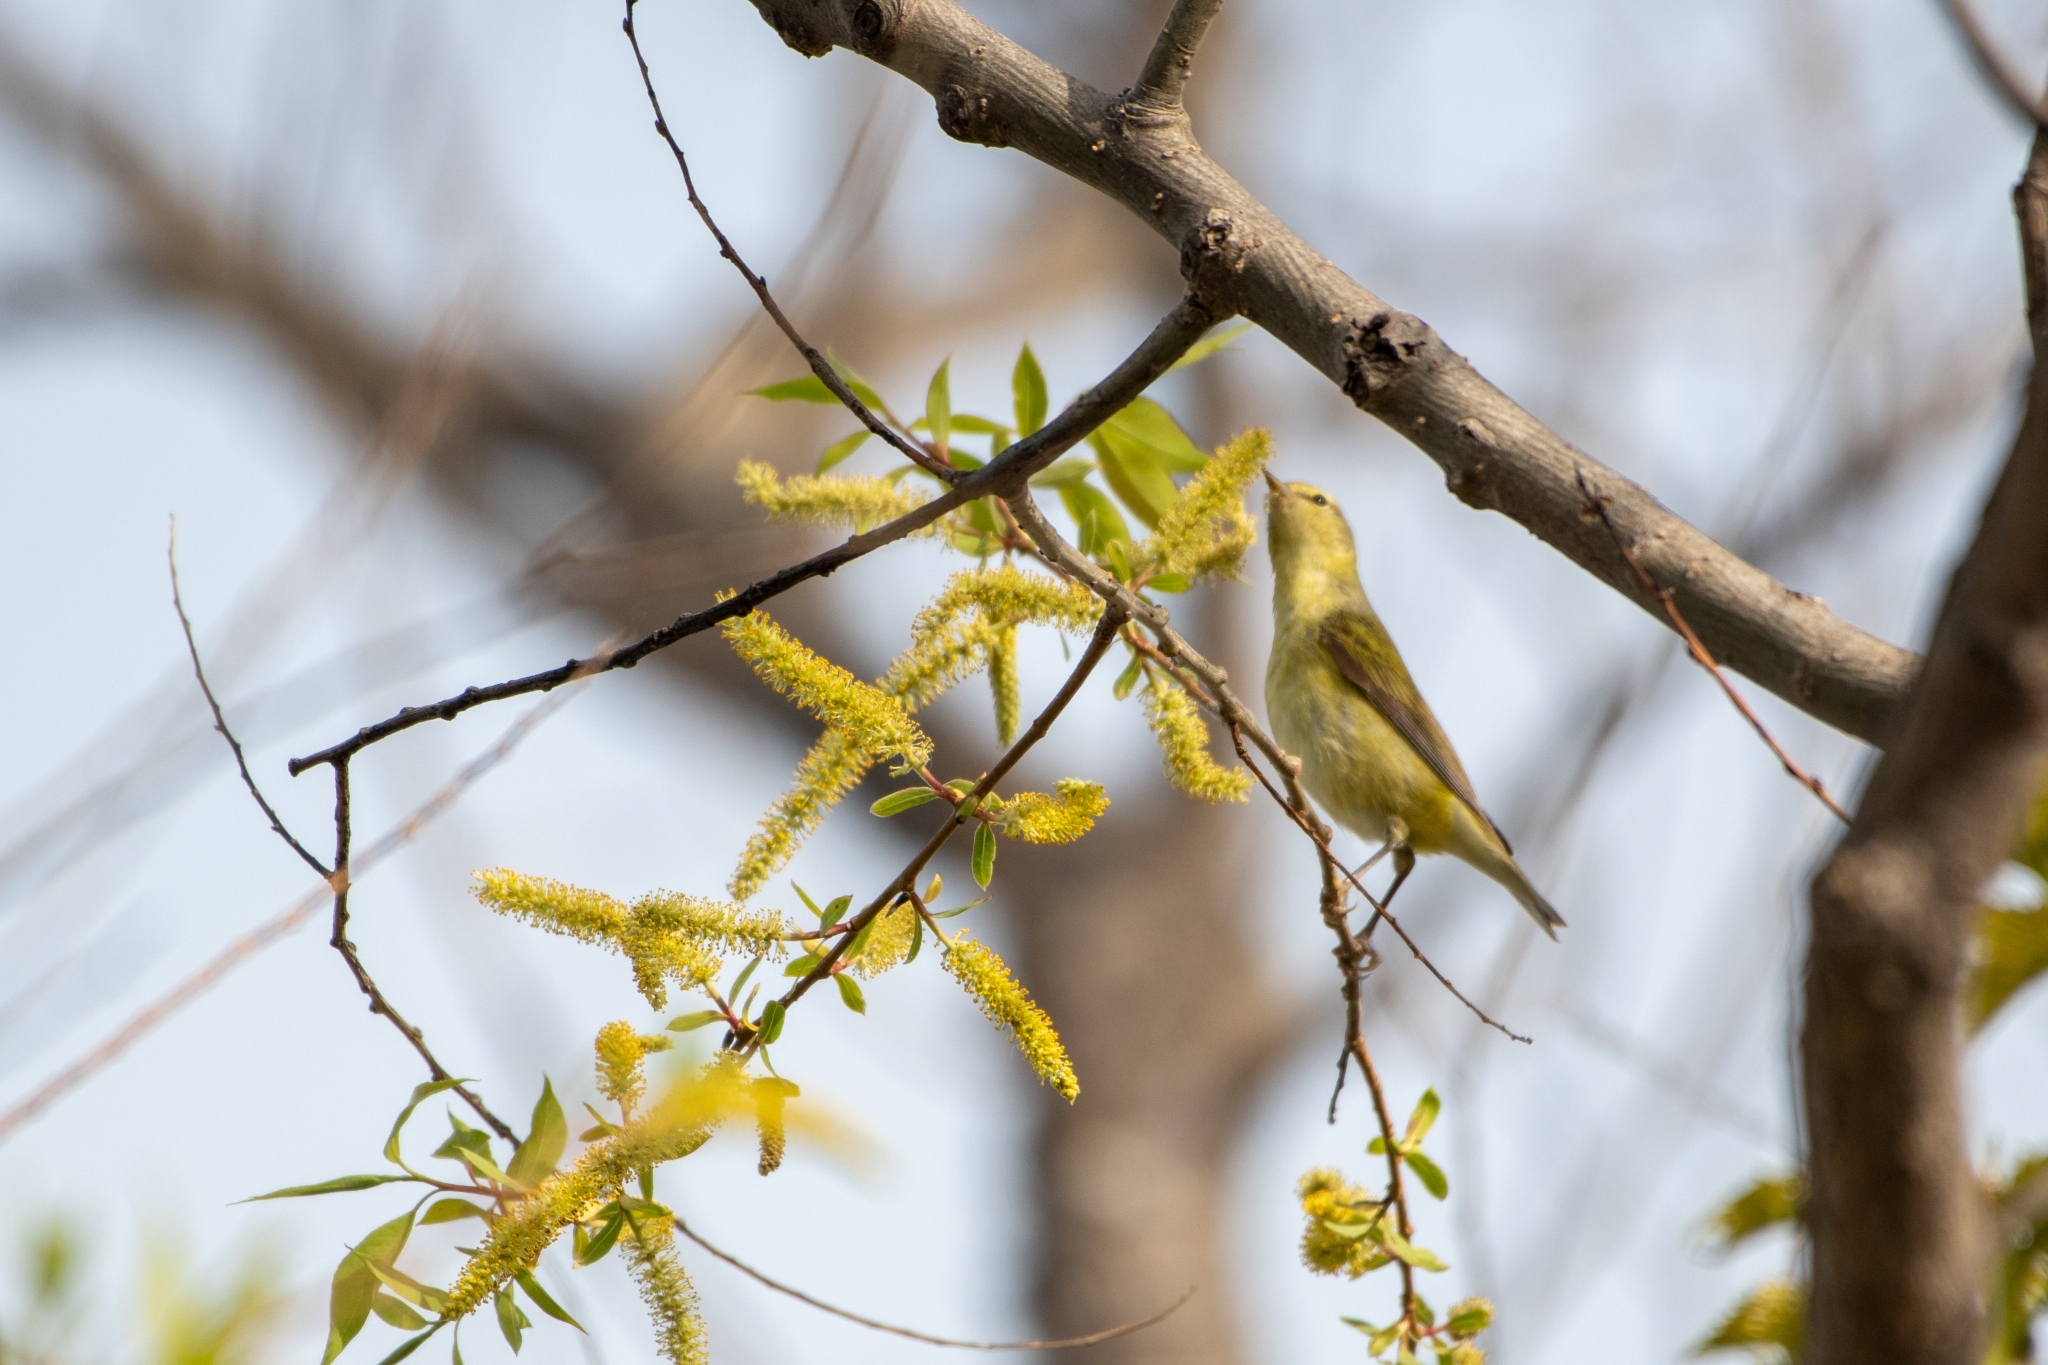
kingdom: Animalia
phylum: Chordata
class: Aves
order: Passeriformes
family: Parulidae
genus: Leiothlypis
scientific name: Leiothlypis peregrina
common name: Tennessee warbler
